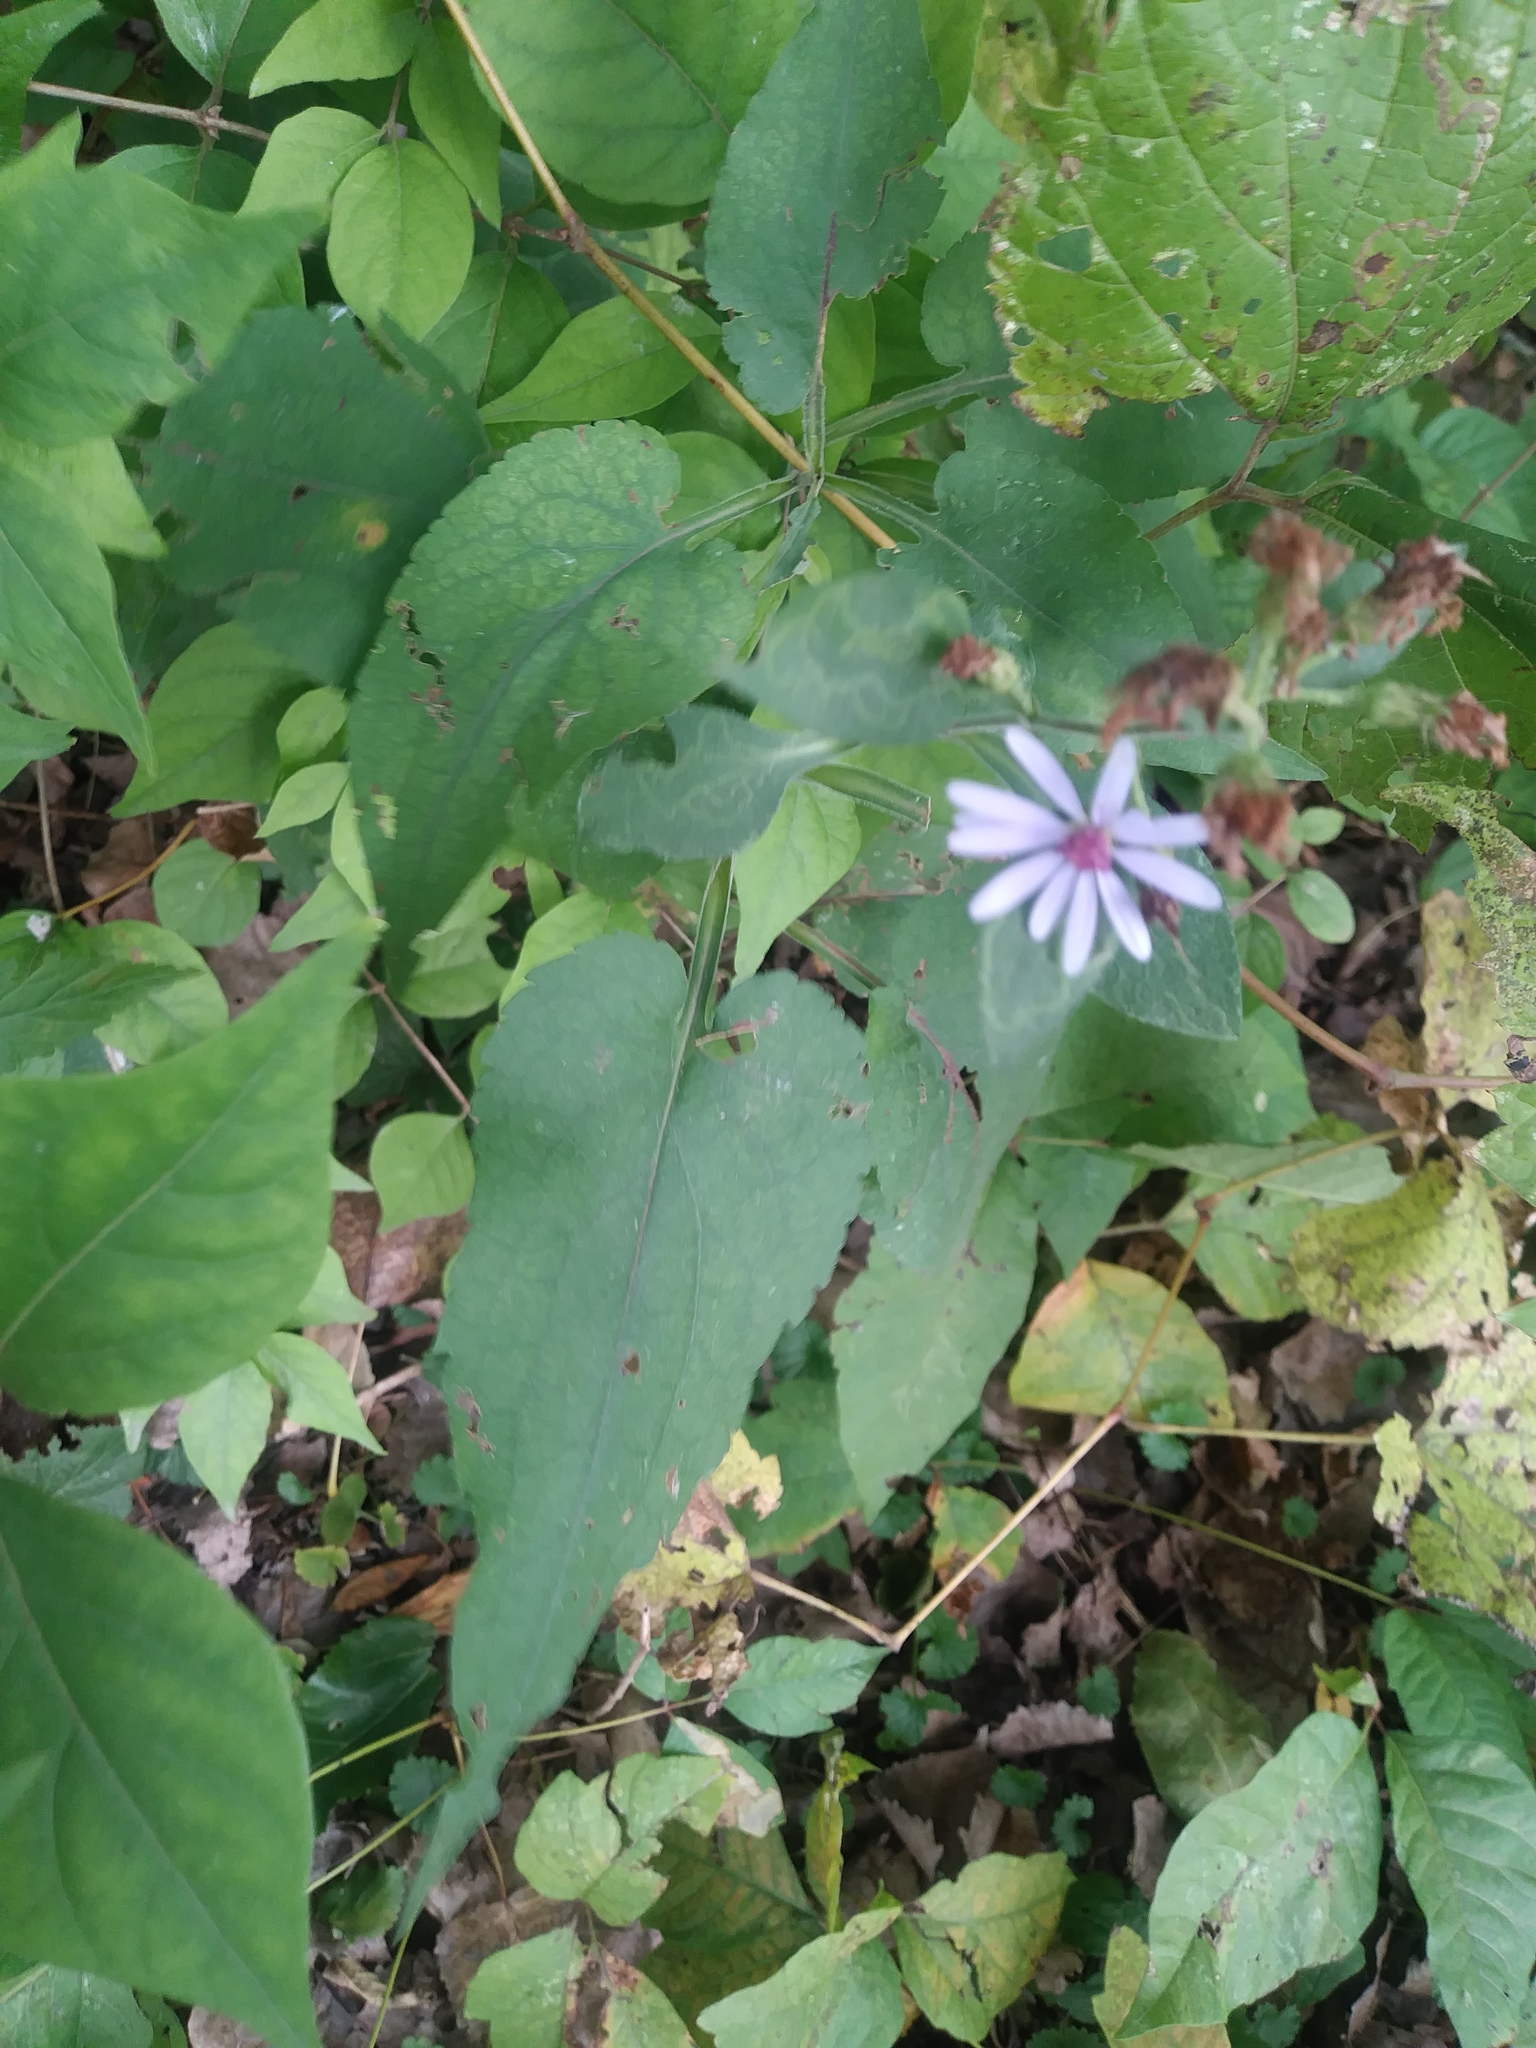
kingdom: Plantae
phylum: Tracheophyta
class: Magnoliopsida
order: Asterales
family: Asteraceae
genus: Symphyotrichum
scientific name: Symphyotrichum drummondii
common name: Drummond's aster
